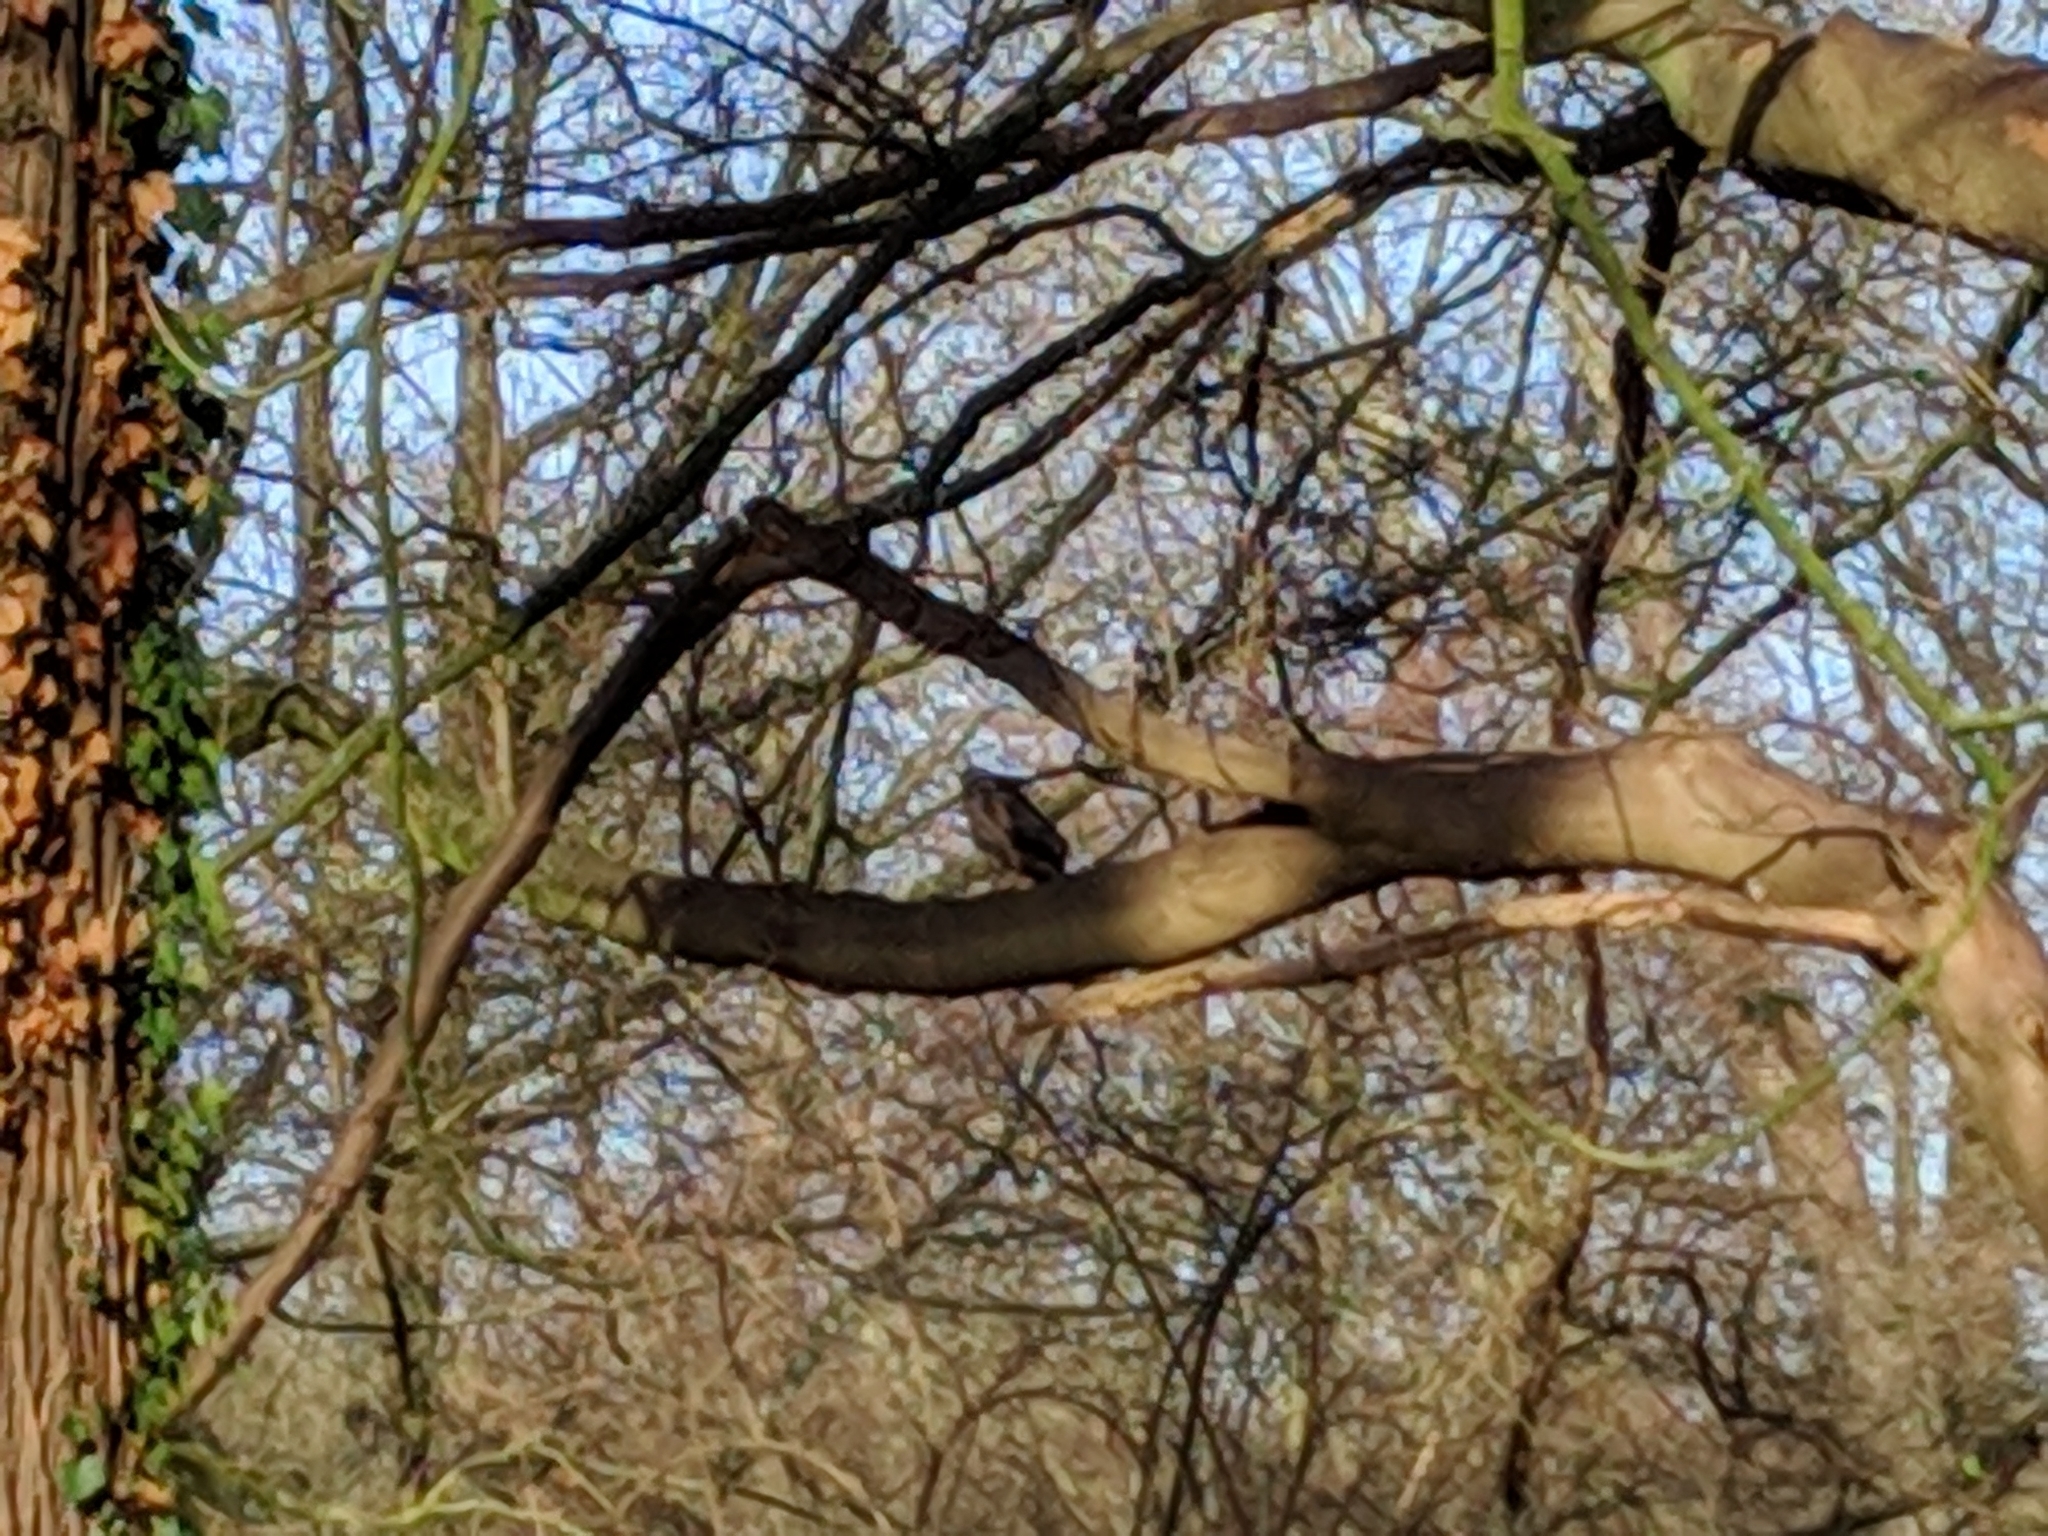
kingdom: Animalia
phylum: Chordata
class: Aves
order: Accipitriformes
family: Accipitridae
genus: Buteo
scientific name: Buteo buteo
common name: Common buzzard
